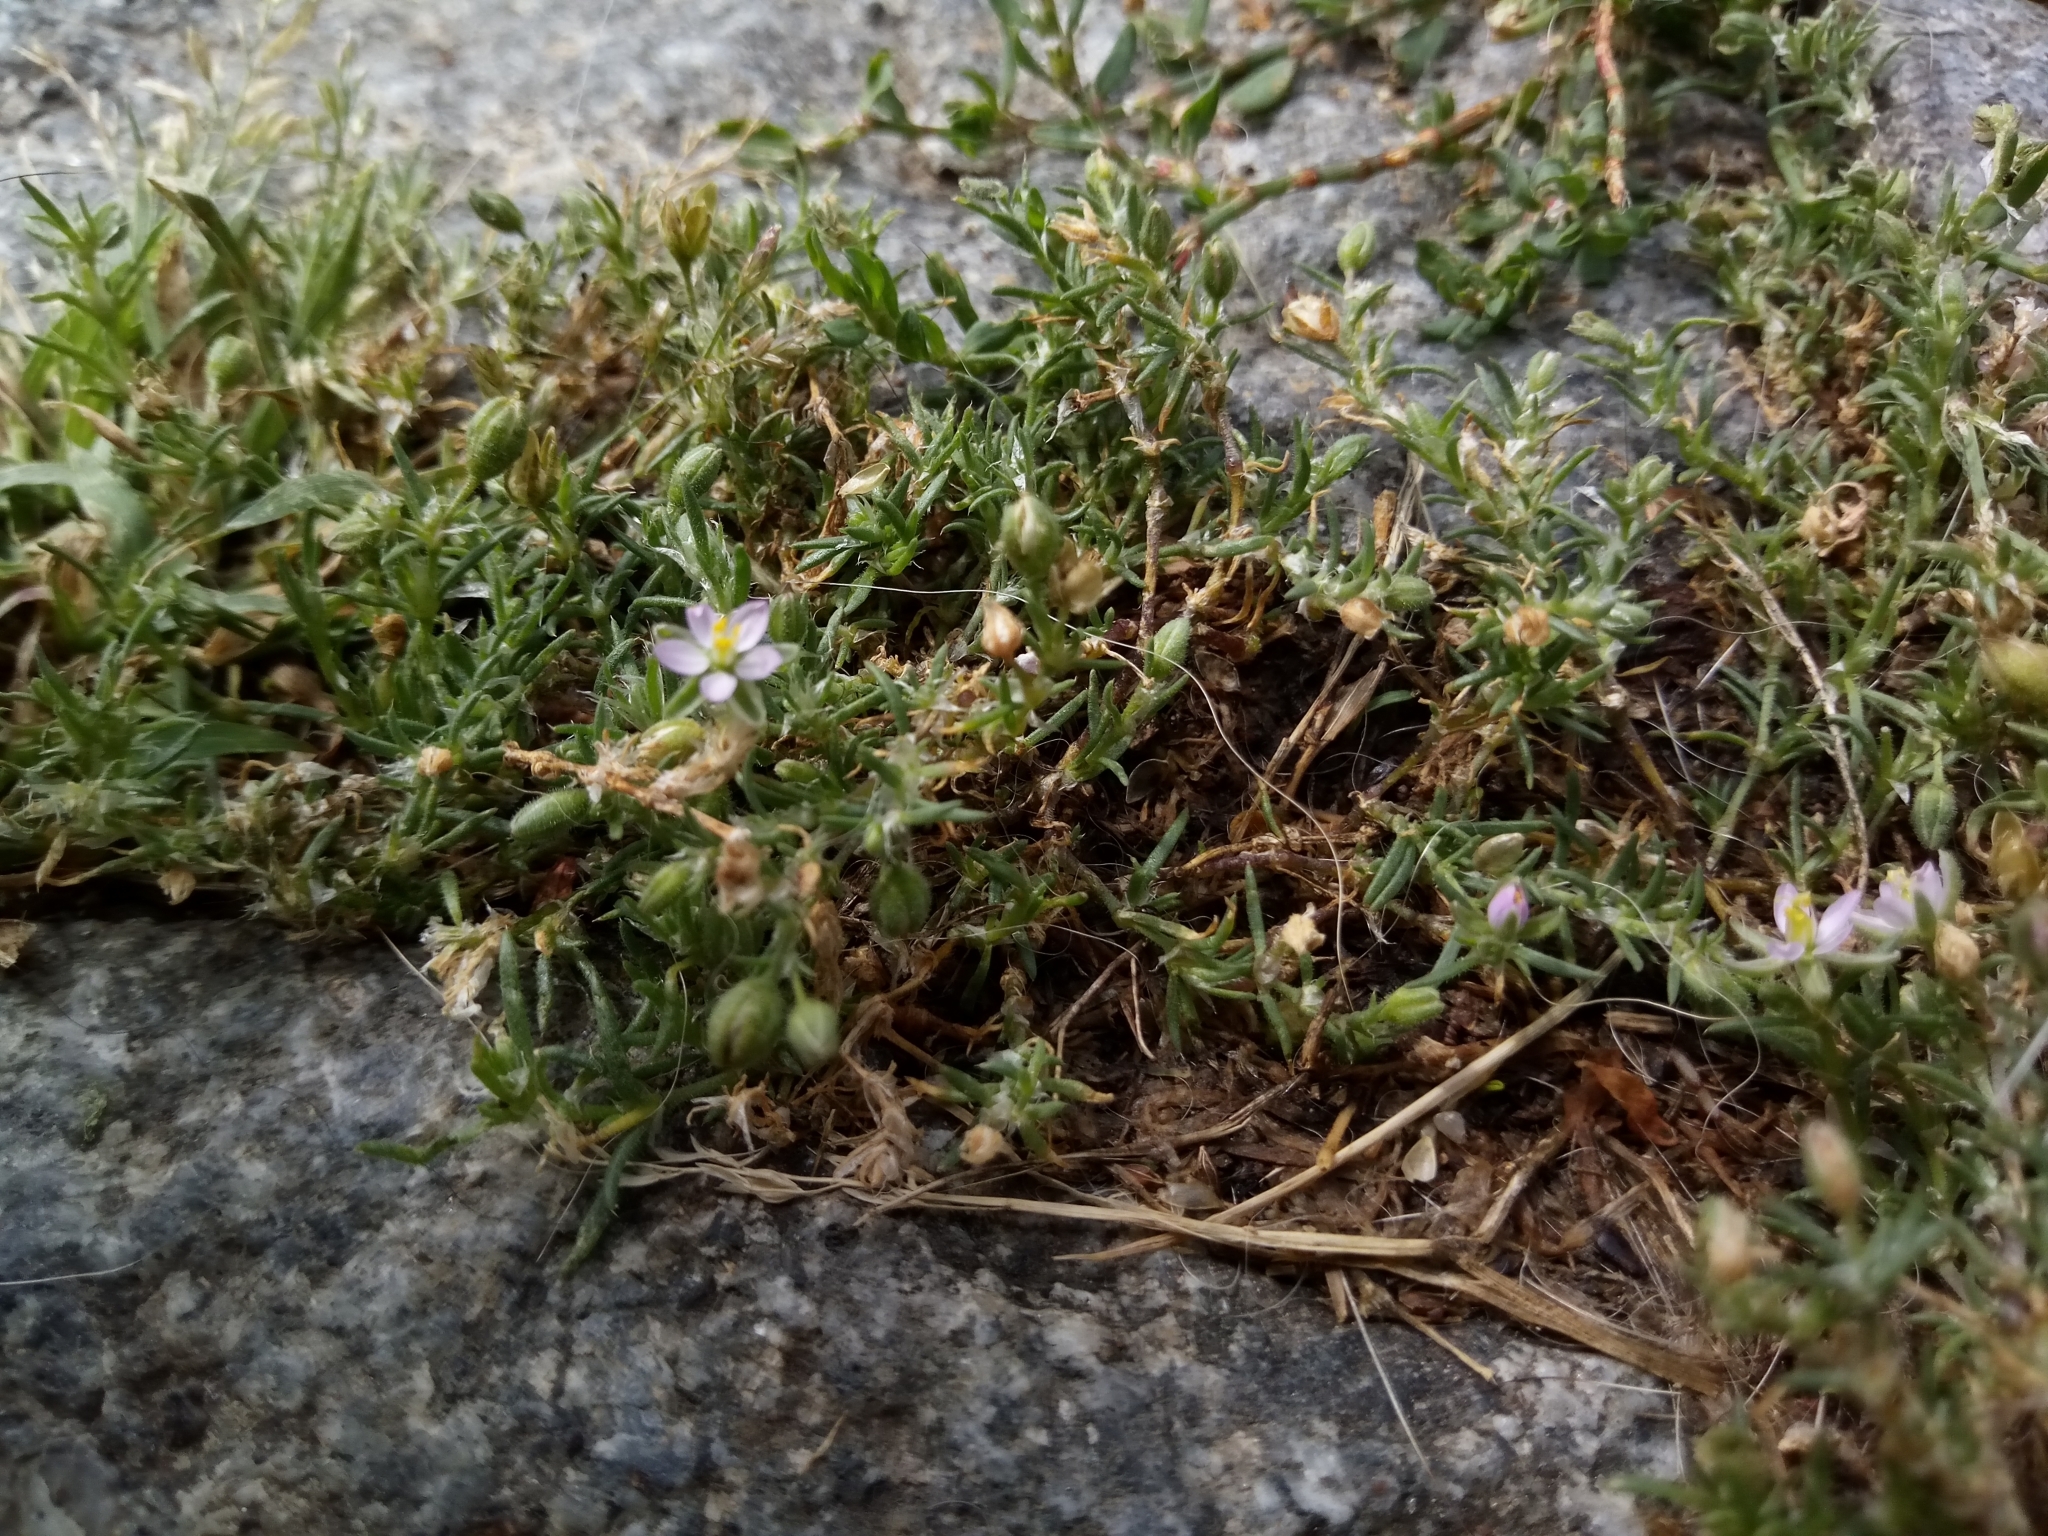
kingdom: Plantae
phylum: Tracheophyta
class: Magnoliopsida
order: Caryophyllales
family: Caryophyllaceae
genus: Spergularia
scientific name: Spergularia rubra
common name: Red sand-spurrey
